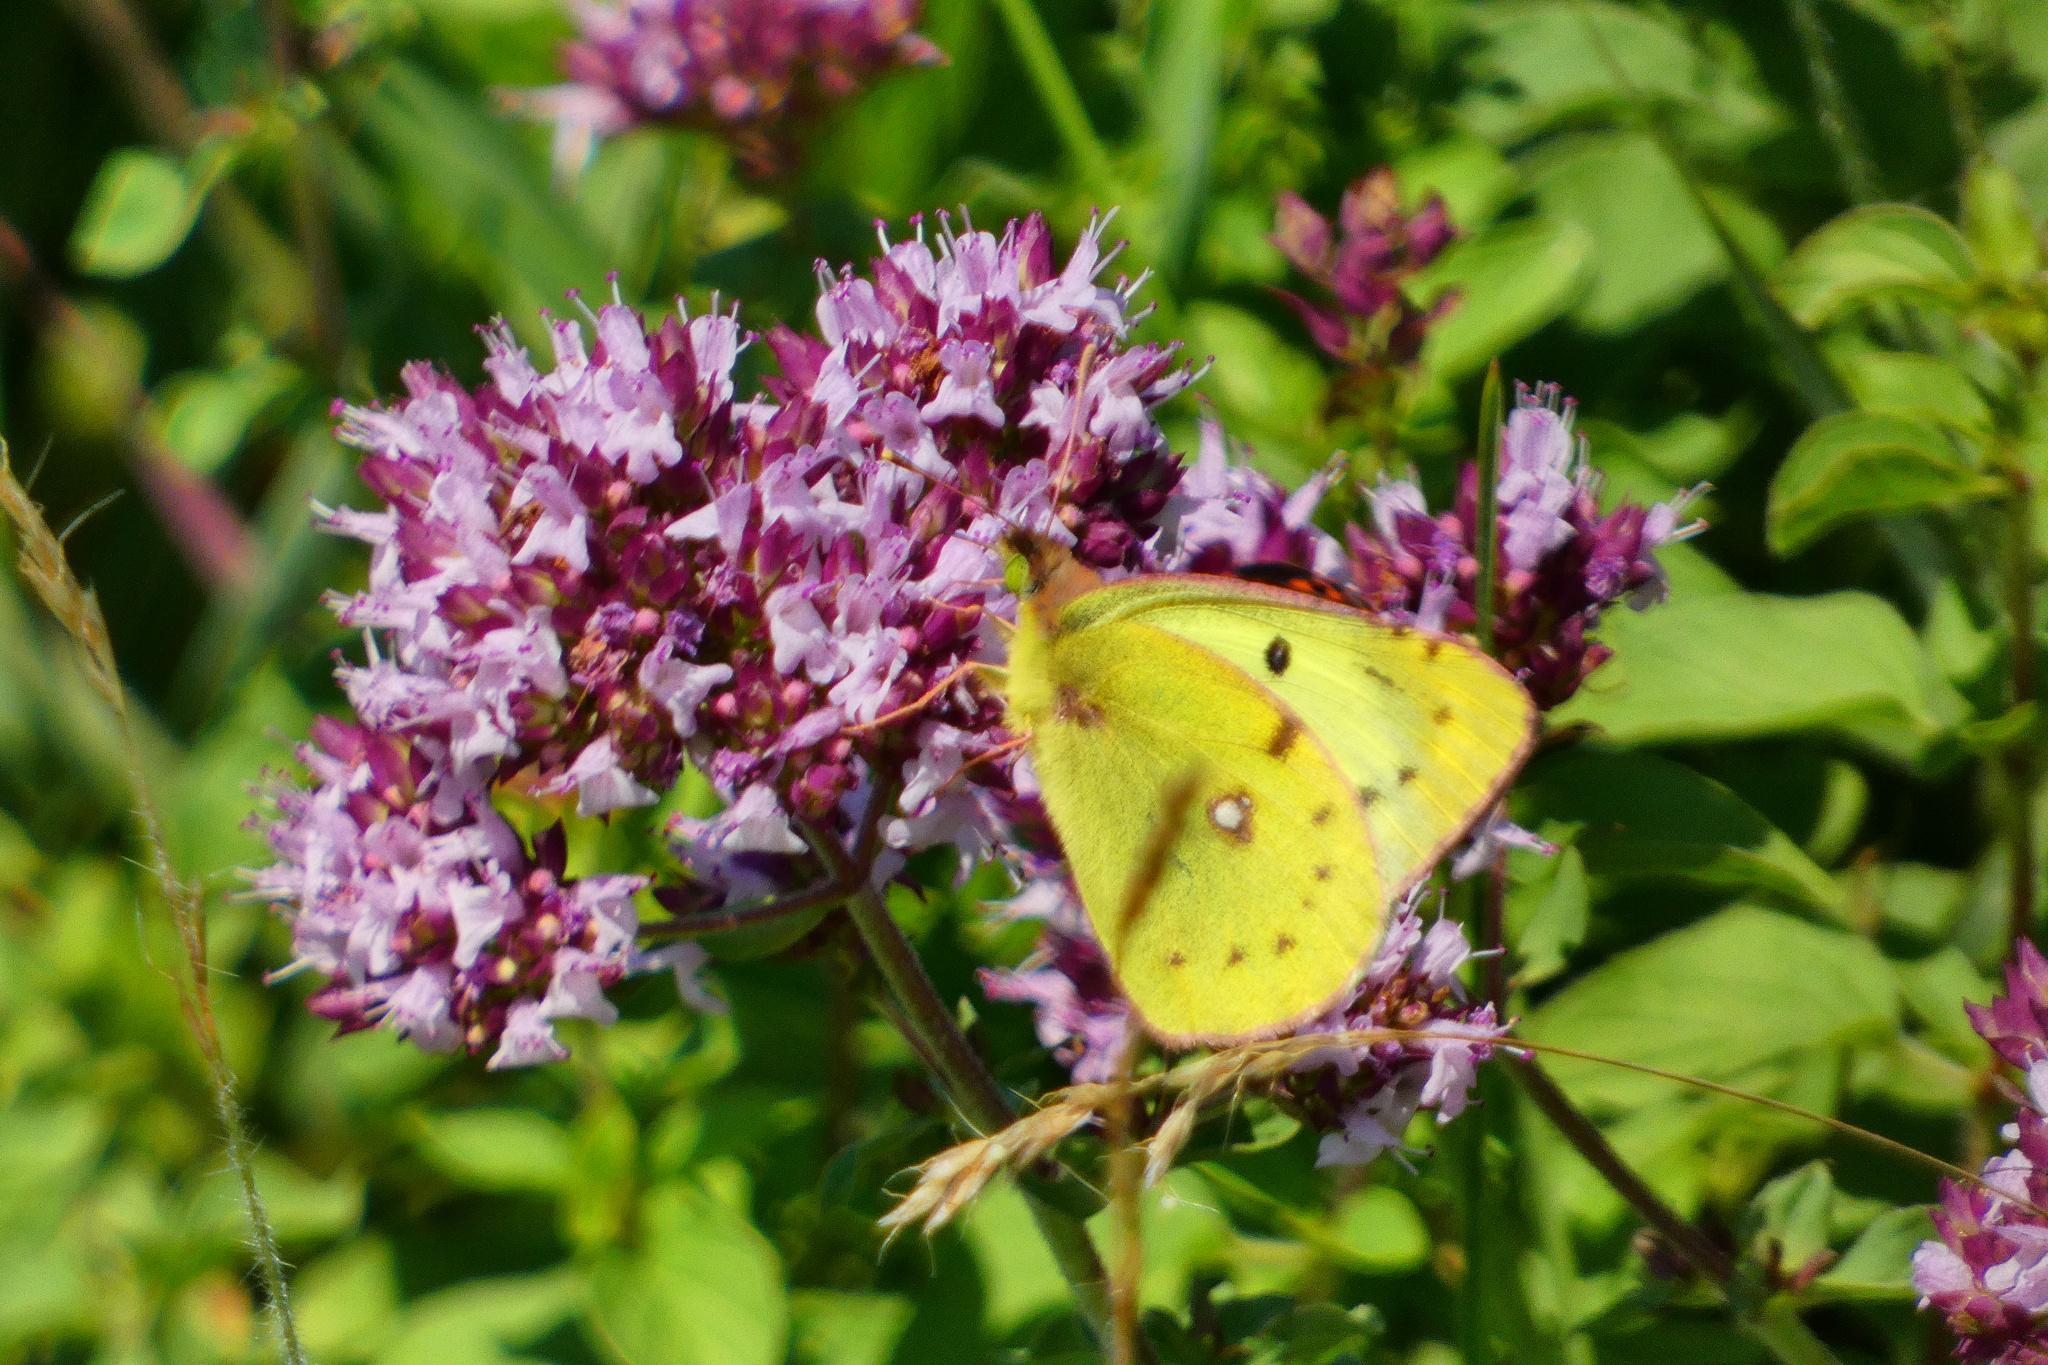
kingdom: Animalia
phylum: Arthropoda
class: Insecta
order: Lepidoptera
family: Pieridae
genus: Colias
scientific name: Colias hyale
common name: Pale clouded yellow
